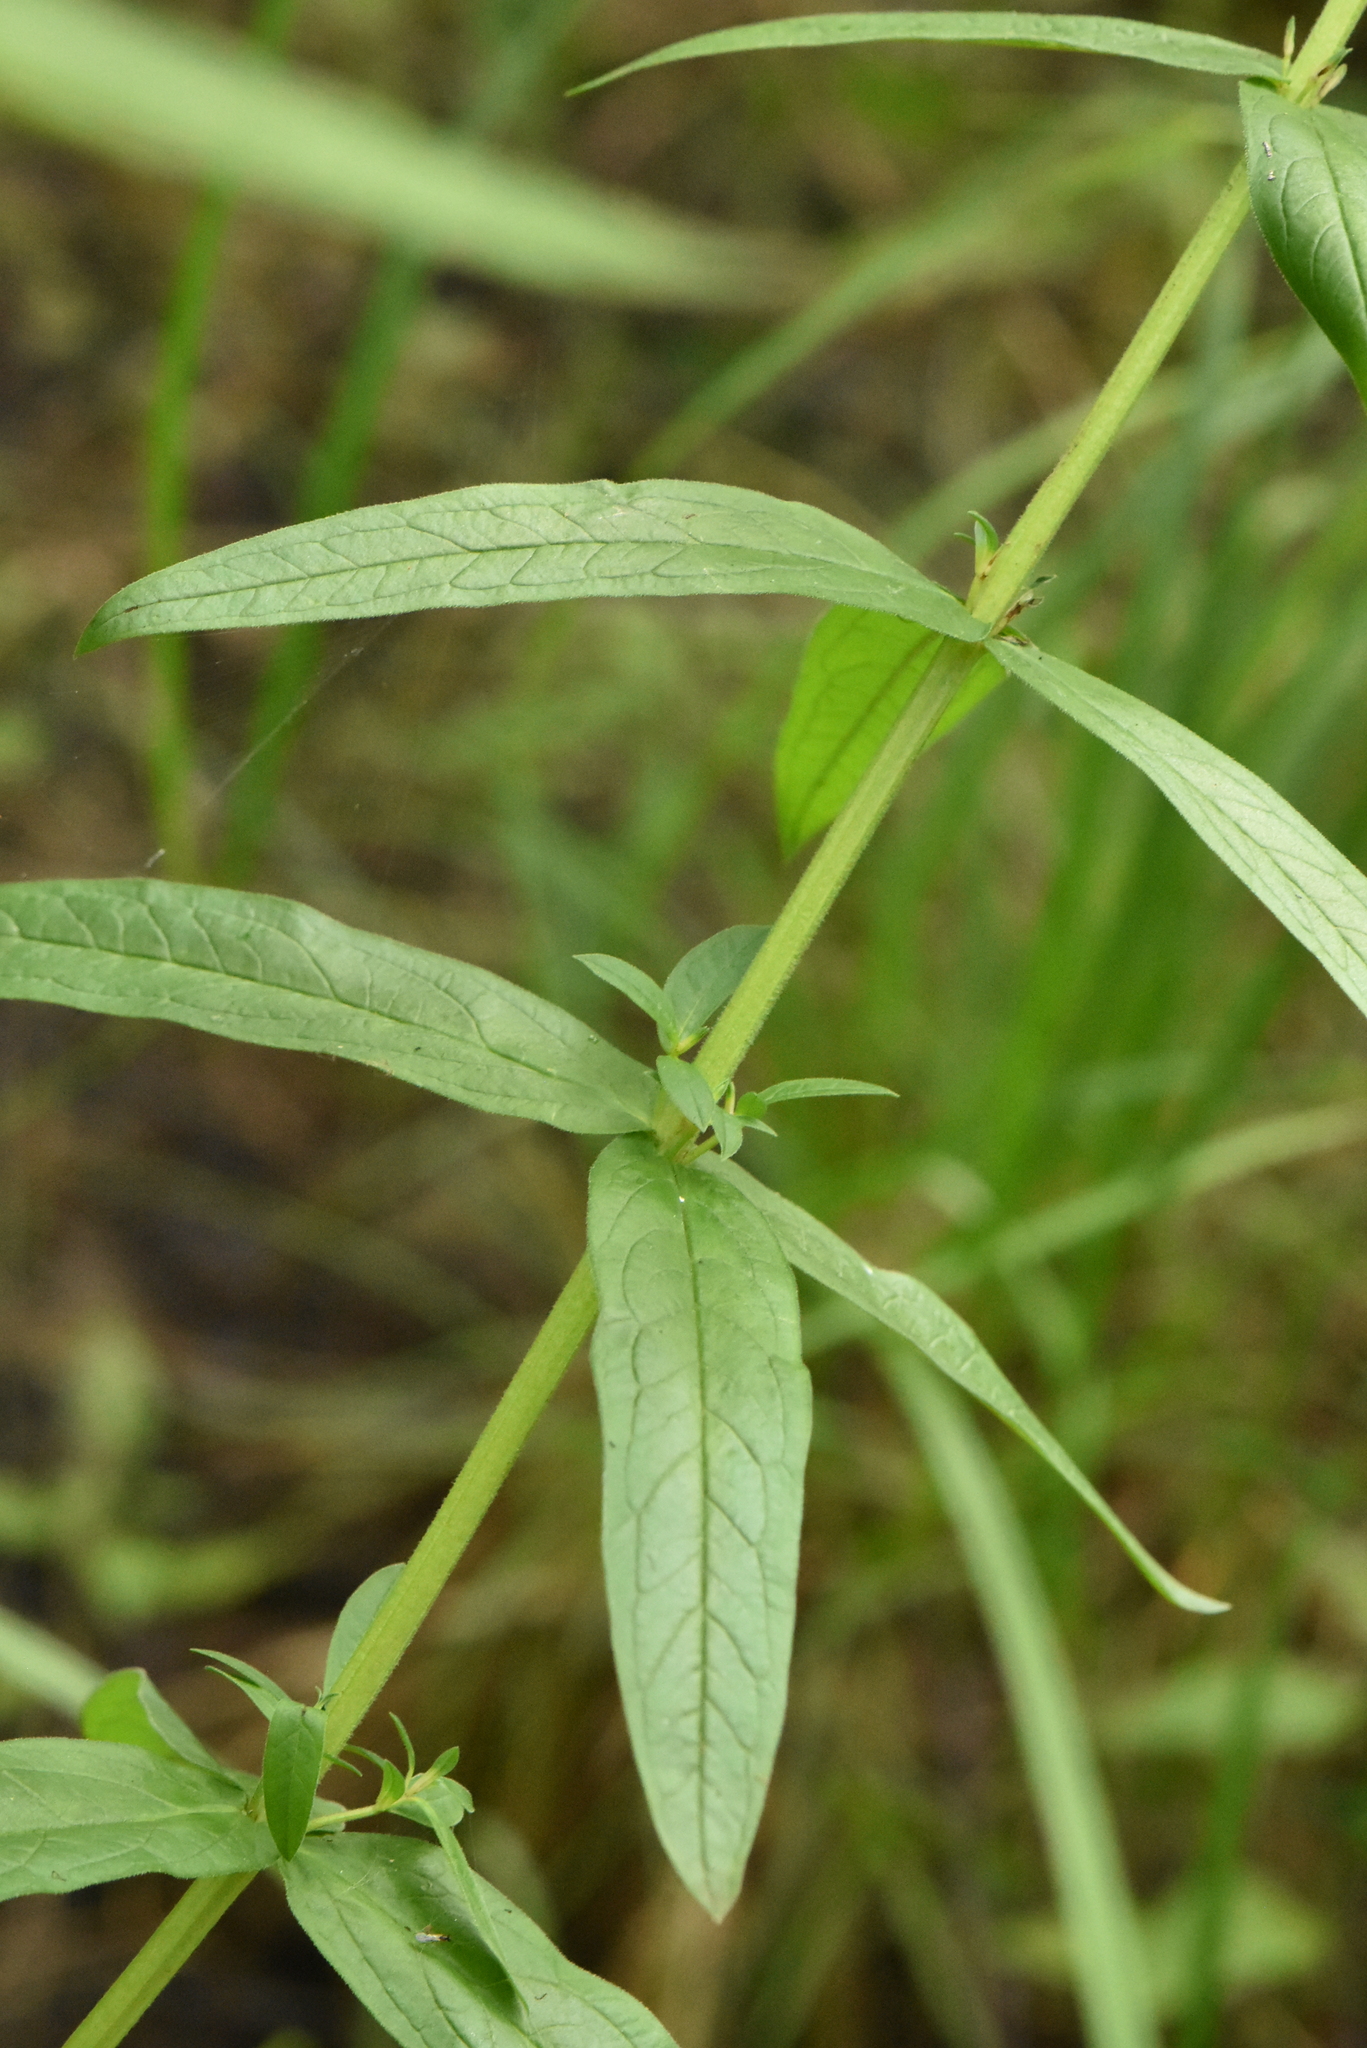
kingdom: Plantae
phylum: Tracheophyta
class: Magnoliopsida
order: Myrtales
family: Lythraceae
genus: Lythrum
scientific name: Lythrum salicaria
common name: Purple loosestrife
